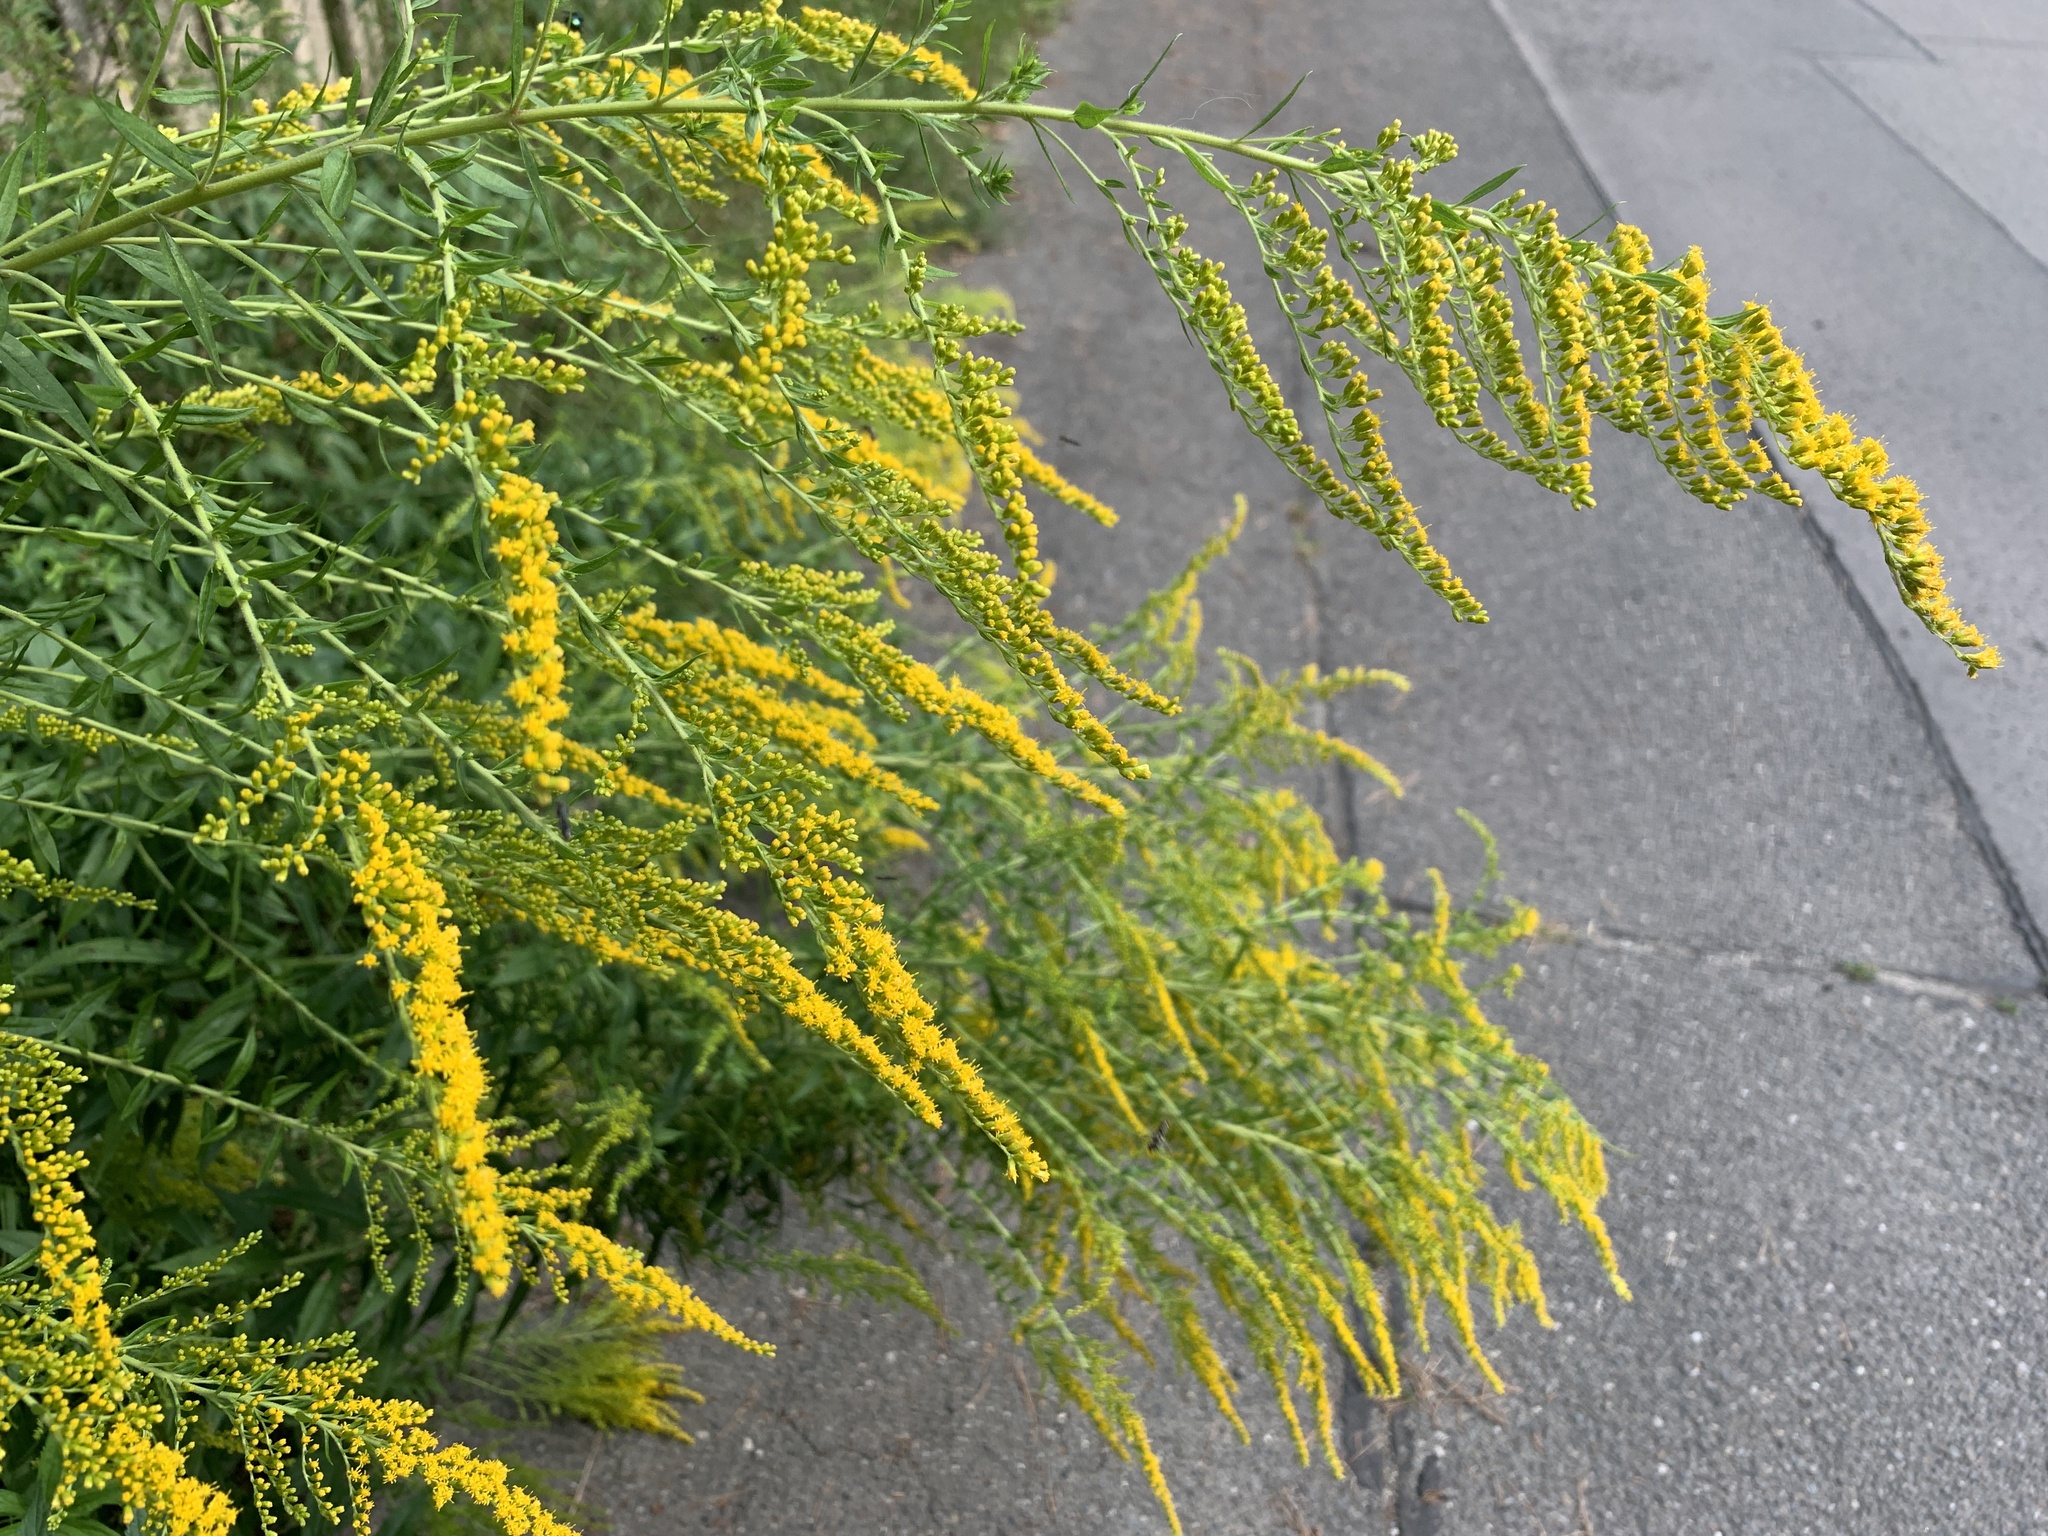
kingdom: Plantae
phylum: Tracheophyta
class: Magnoliopsida
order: Asterales
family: Asteraceae
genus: Solidago
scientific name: Solidago canadensis
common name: Canada goldenrod
